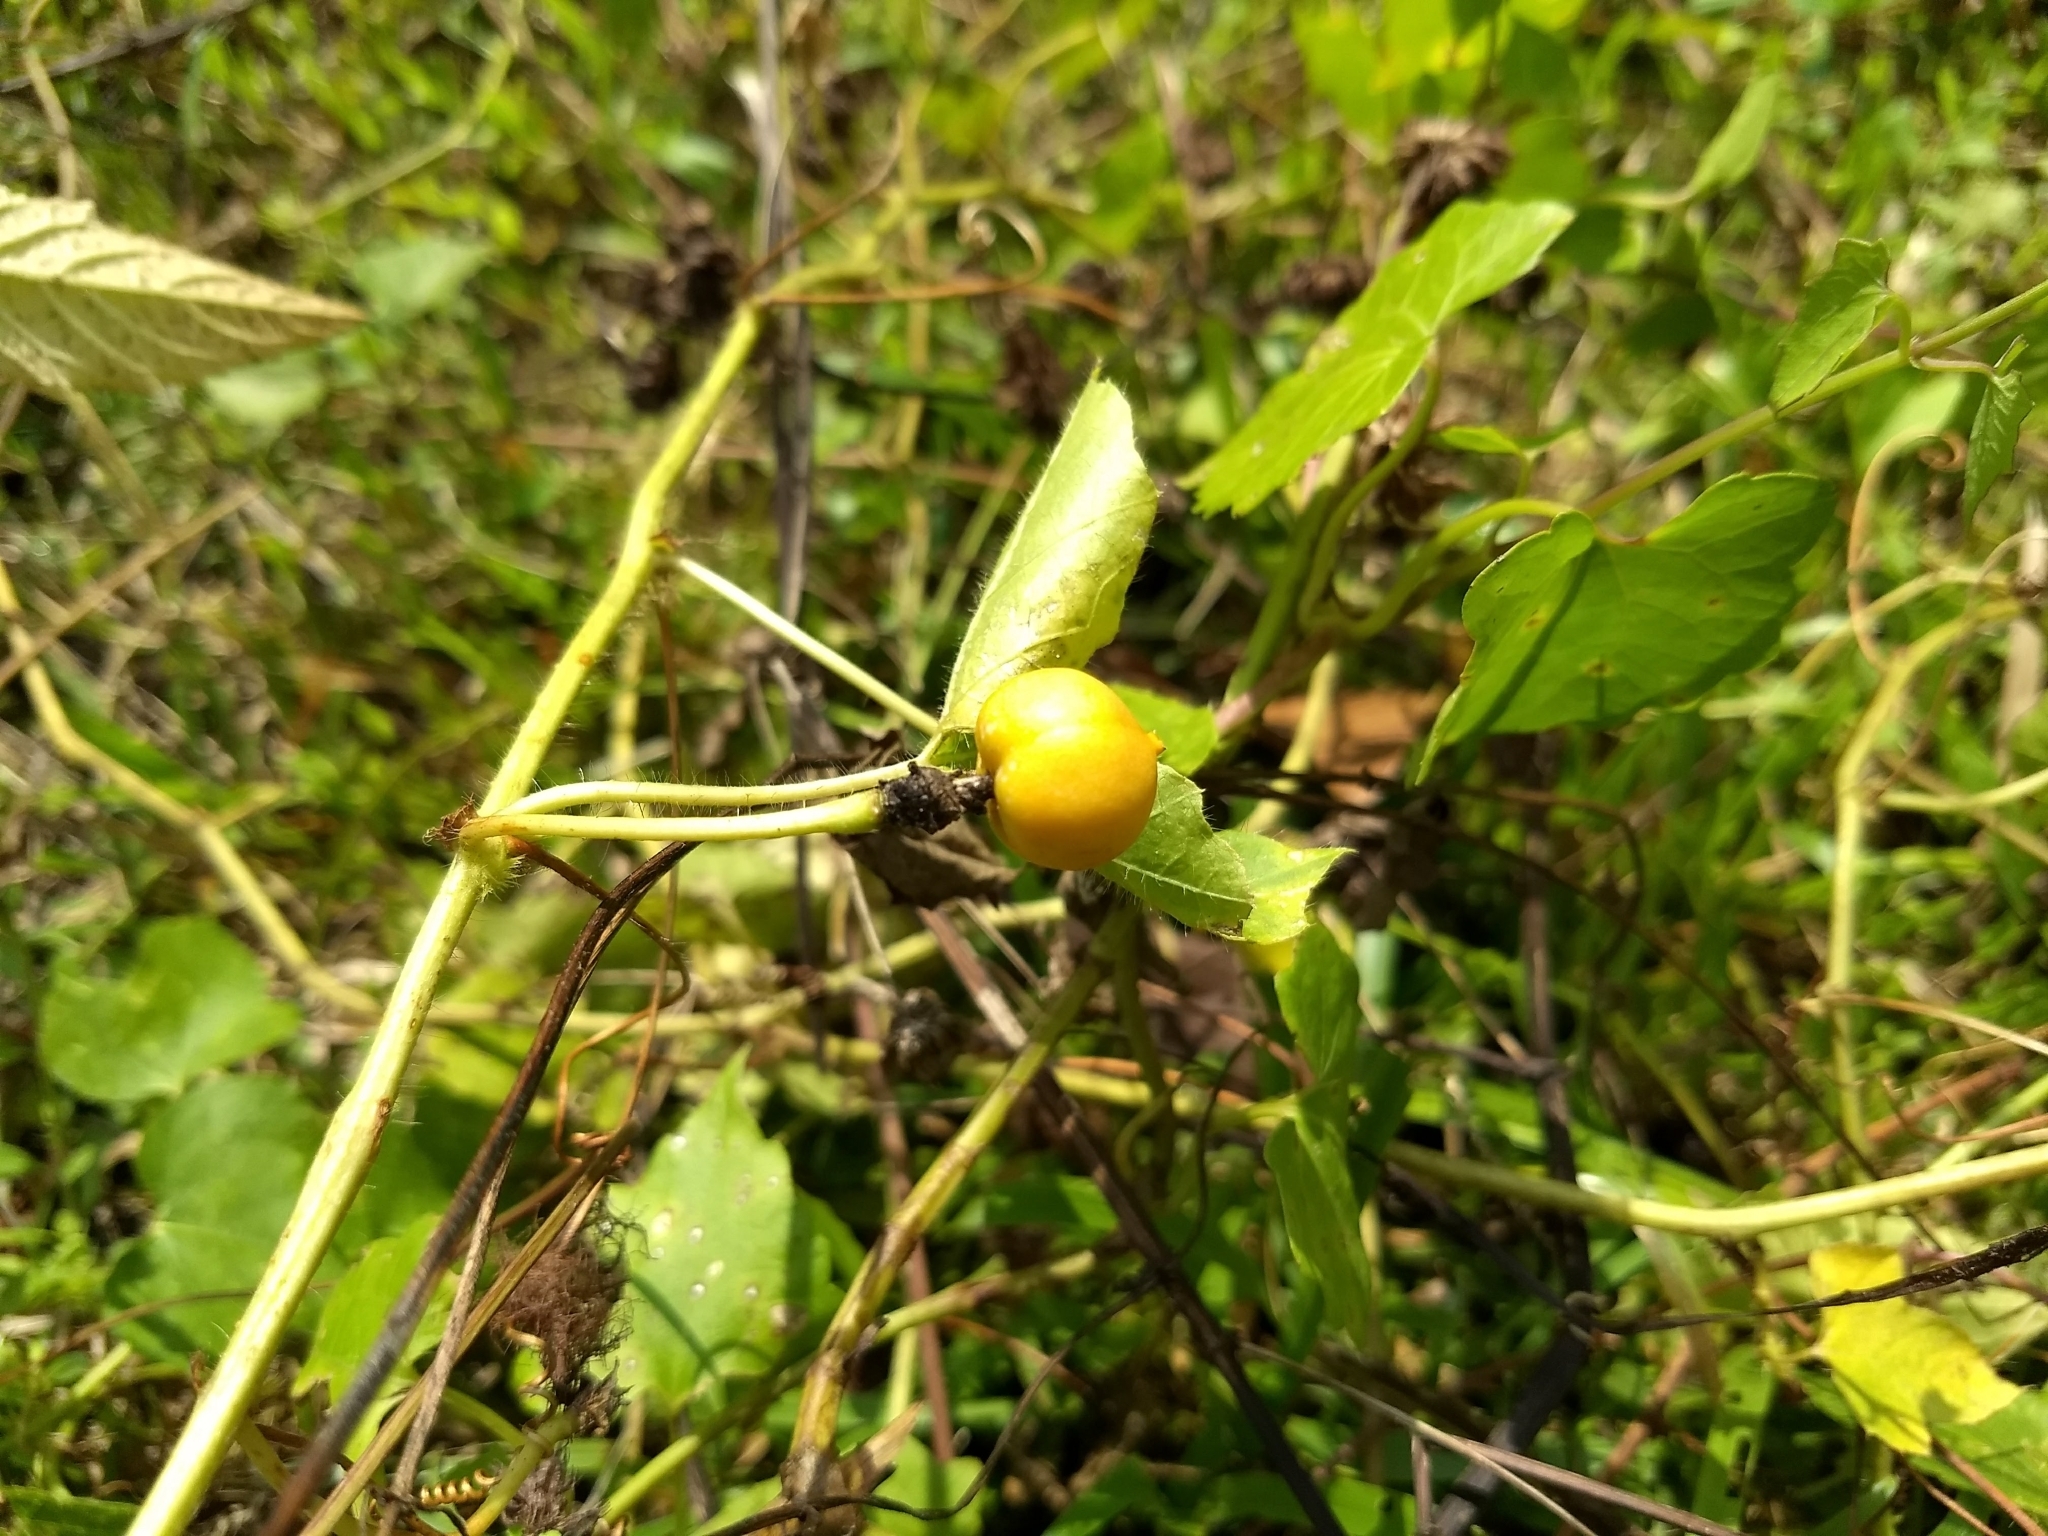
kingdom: Plantae
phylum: Tracheophyta
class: Magnoliopsida
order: Malpighiales
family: Passifloraceae
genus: Passiflora
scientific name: Passiflora foetida
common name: Fetid passionflower
